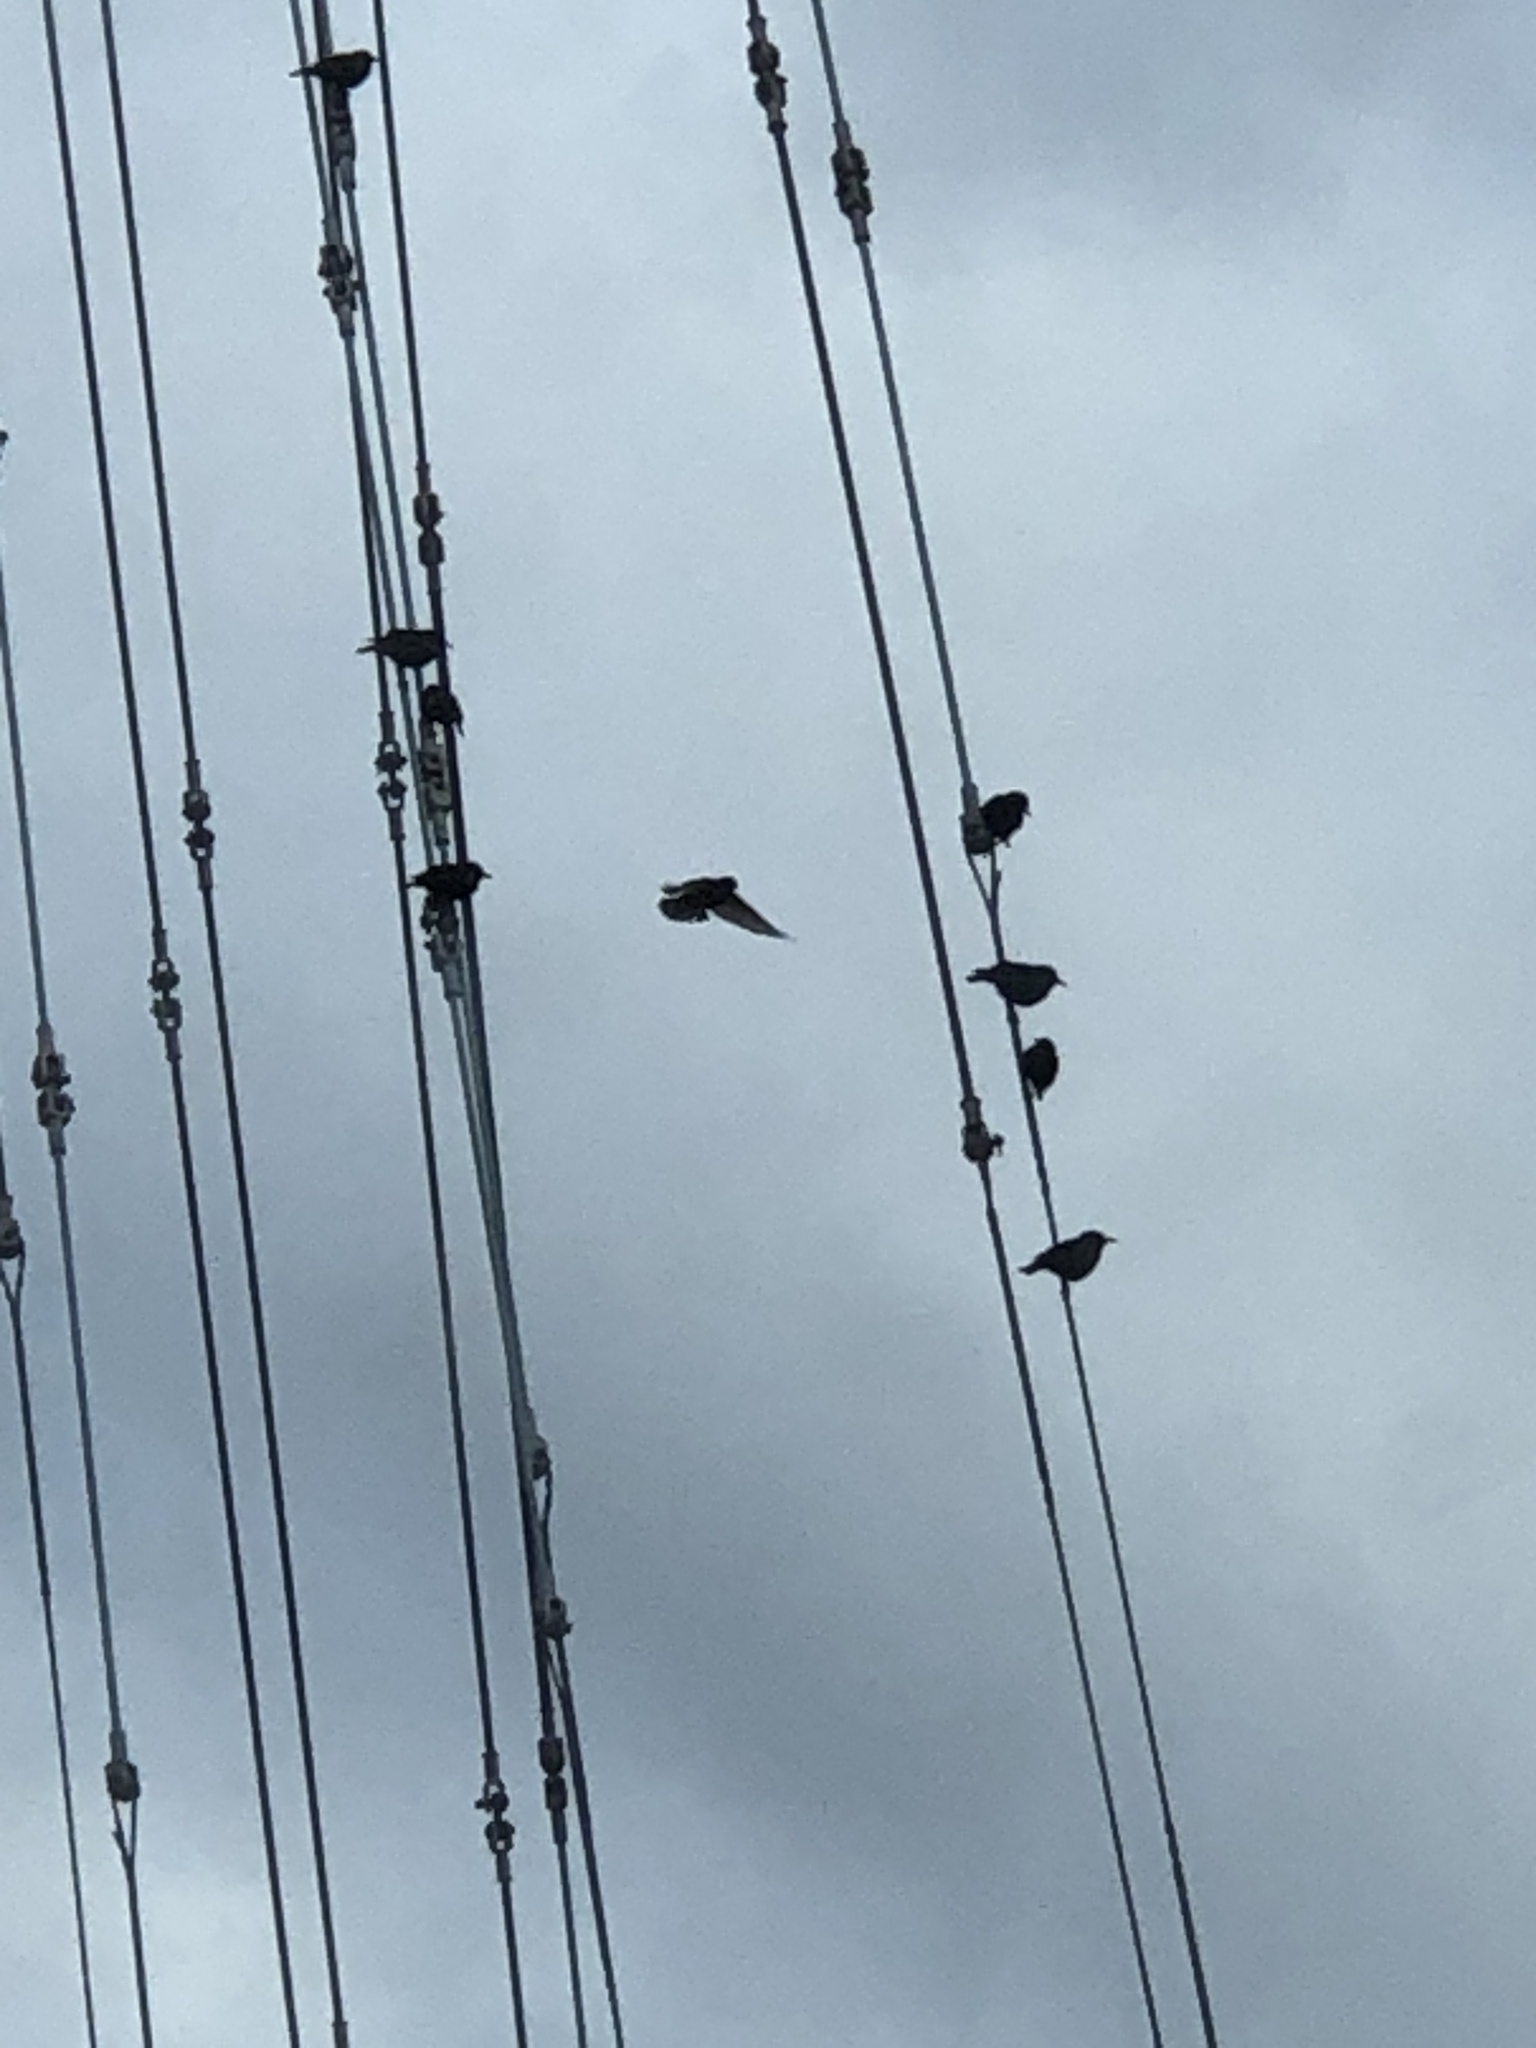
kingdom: Animalia
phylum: Chordata
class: Aves
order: Passeriformes
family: Sturnidae
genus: Sturnus
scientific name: Sturnus vulgaris
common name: Common starling
